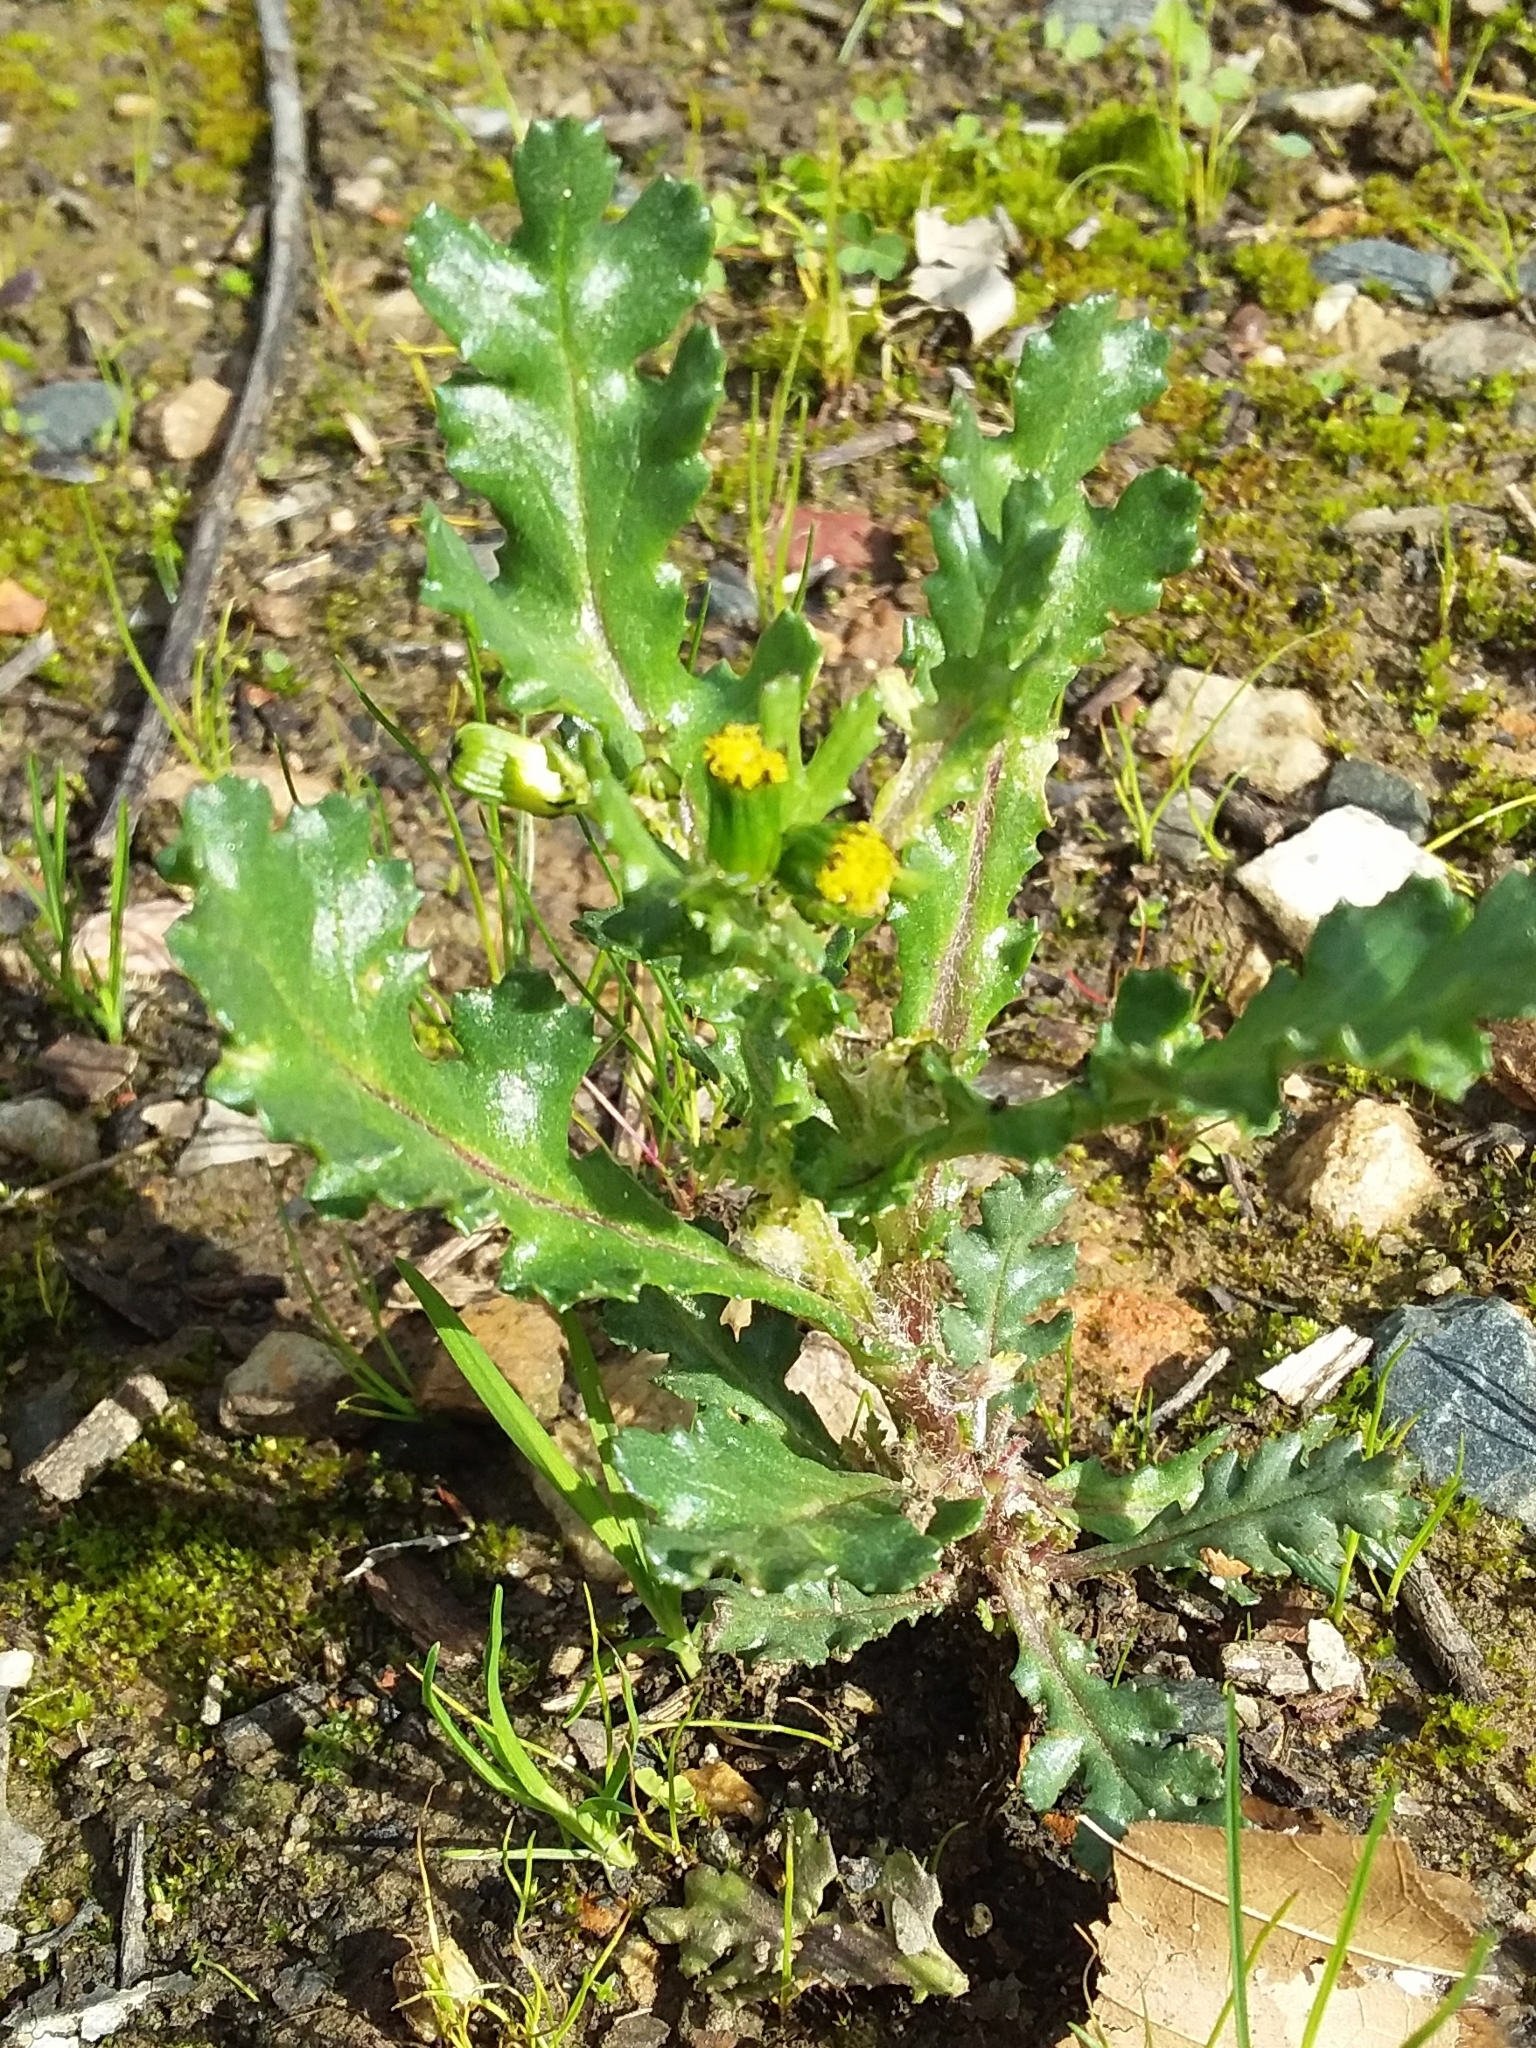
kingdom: Plantae
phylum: Tracheophyta
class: Magnoliopsida
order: Asterales
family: Asteraceae
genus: Senecio
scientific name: Senecio vulgaris
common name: Old-man-in-the-spring
